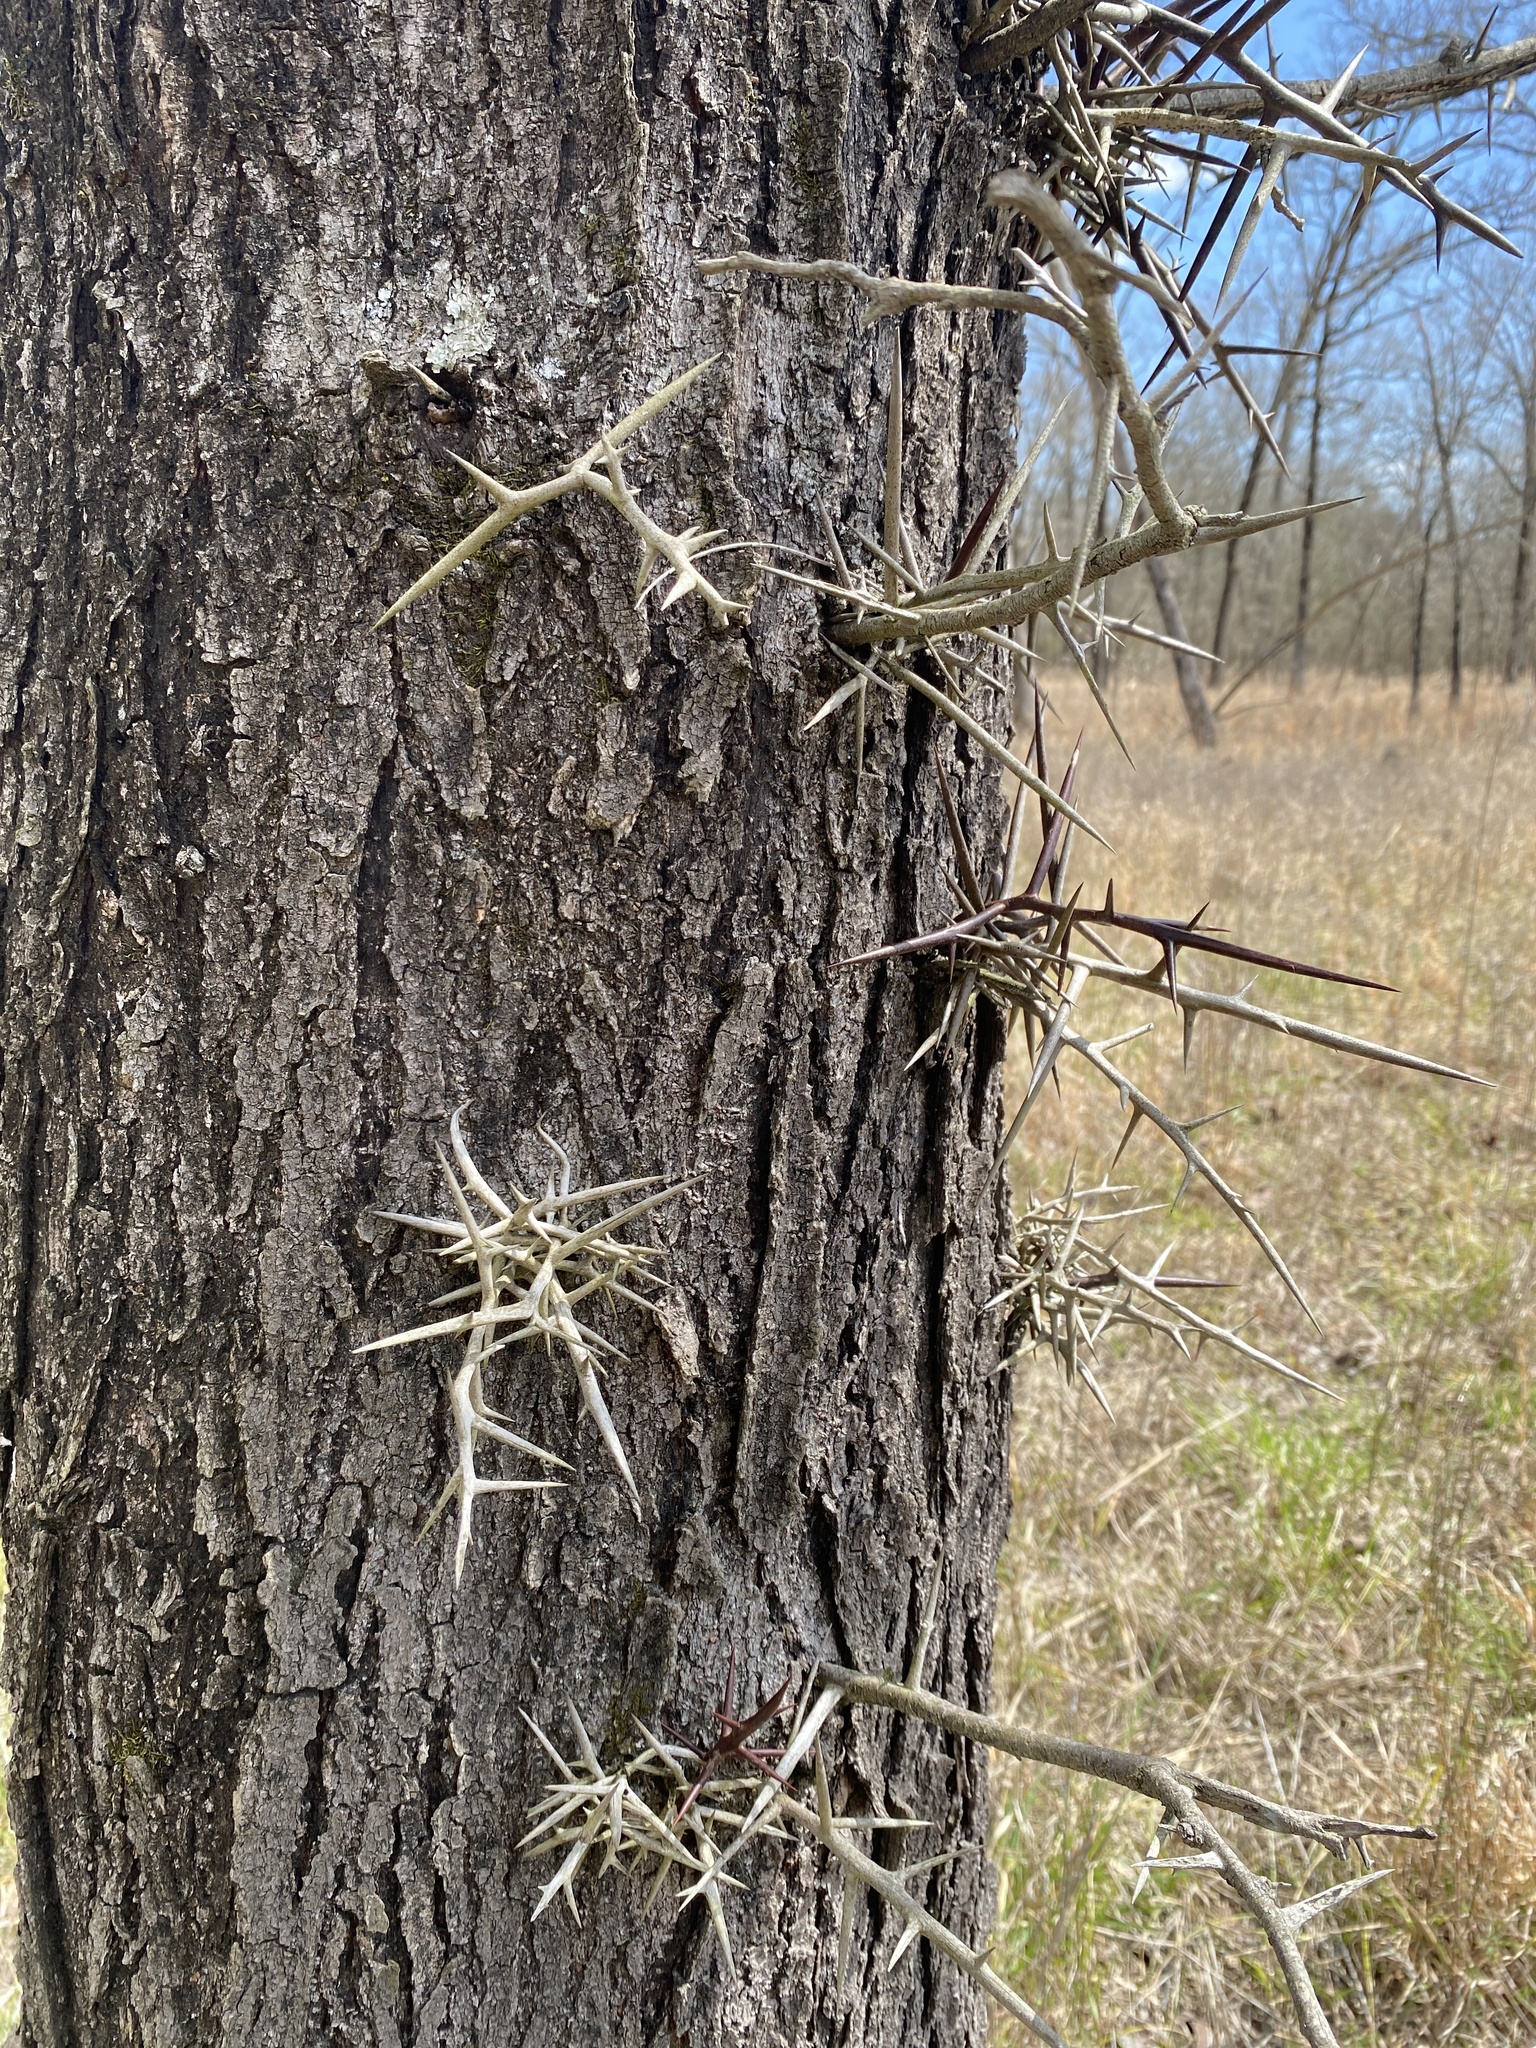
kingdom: Plantae
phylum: Tracheophyta
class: Magnoliopsida
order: Fabales
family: Fabaceae
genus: Gleditsia
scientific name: Gleditsia triacanthos
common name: Common honeylocust
